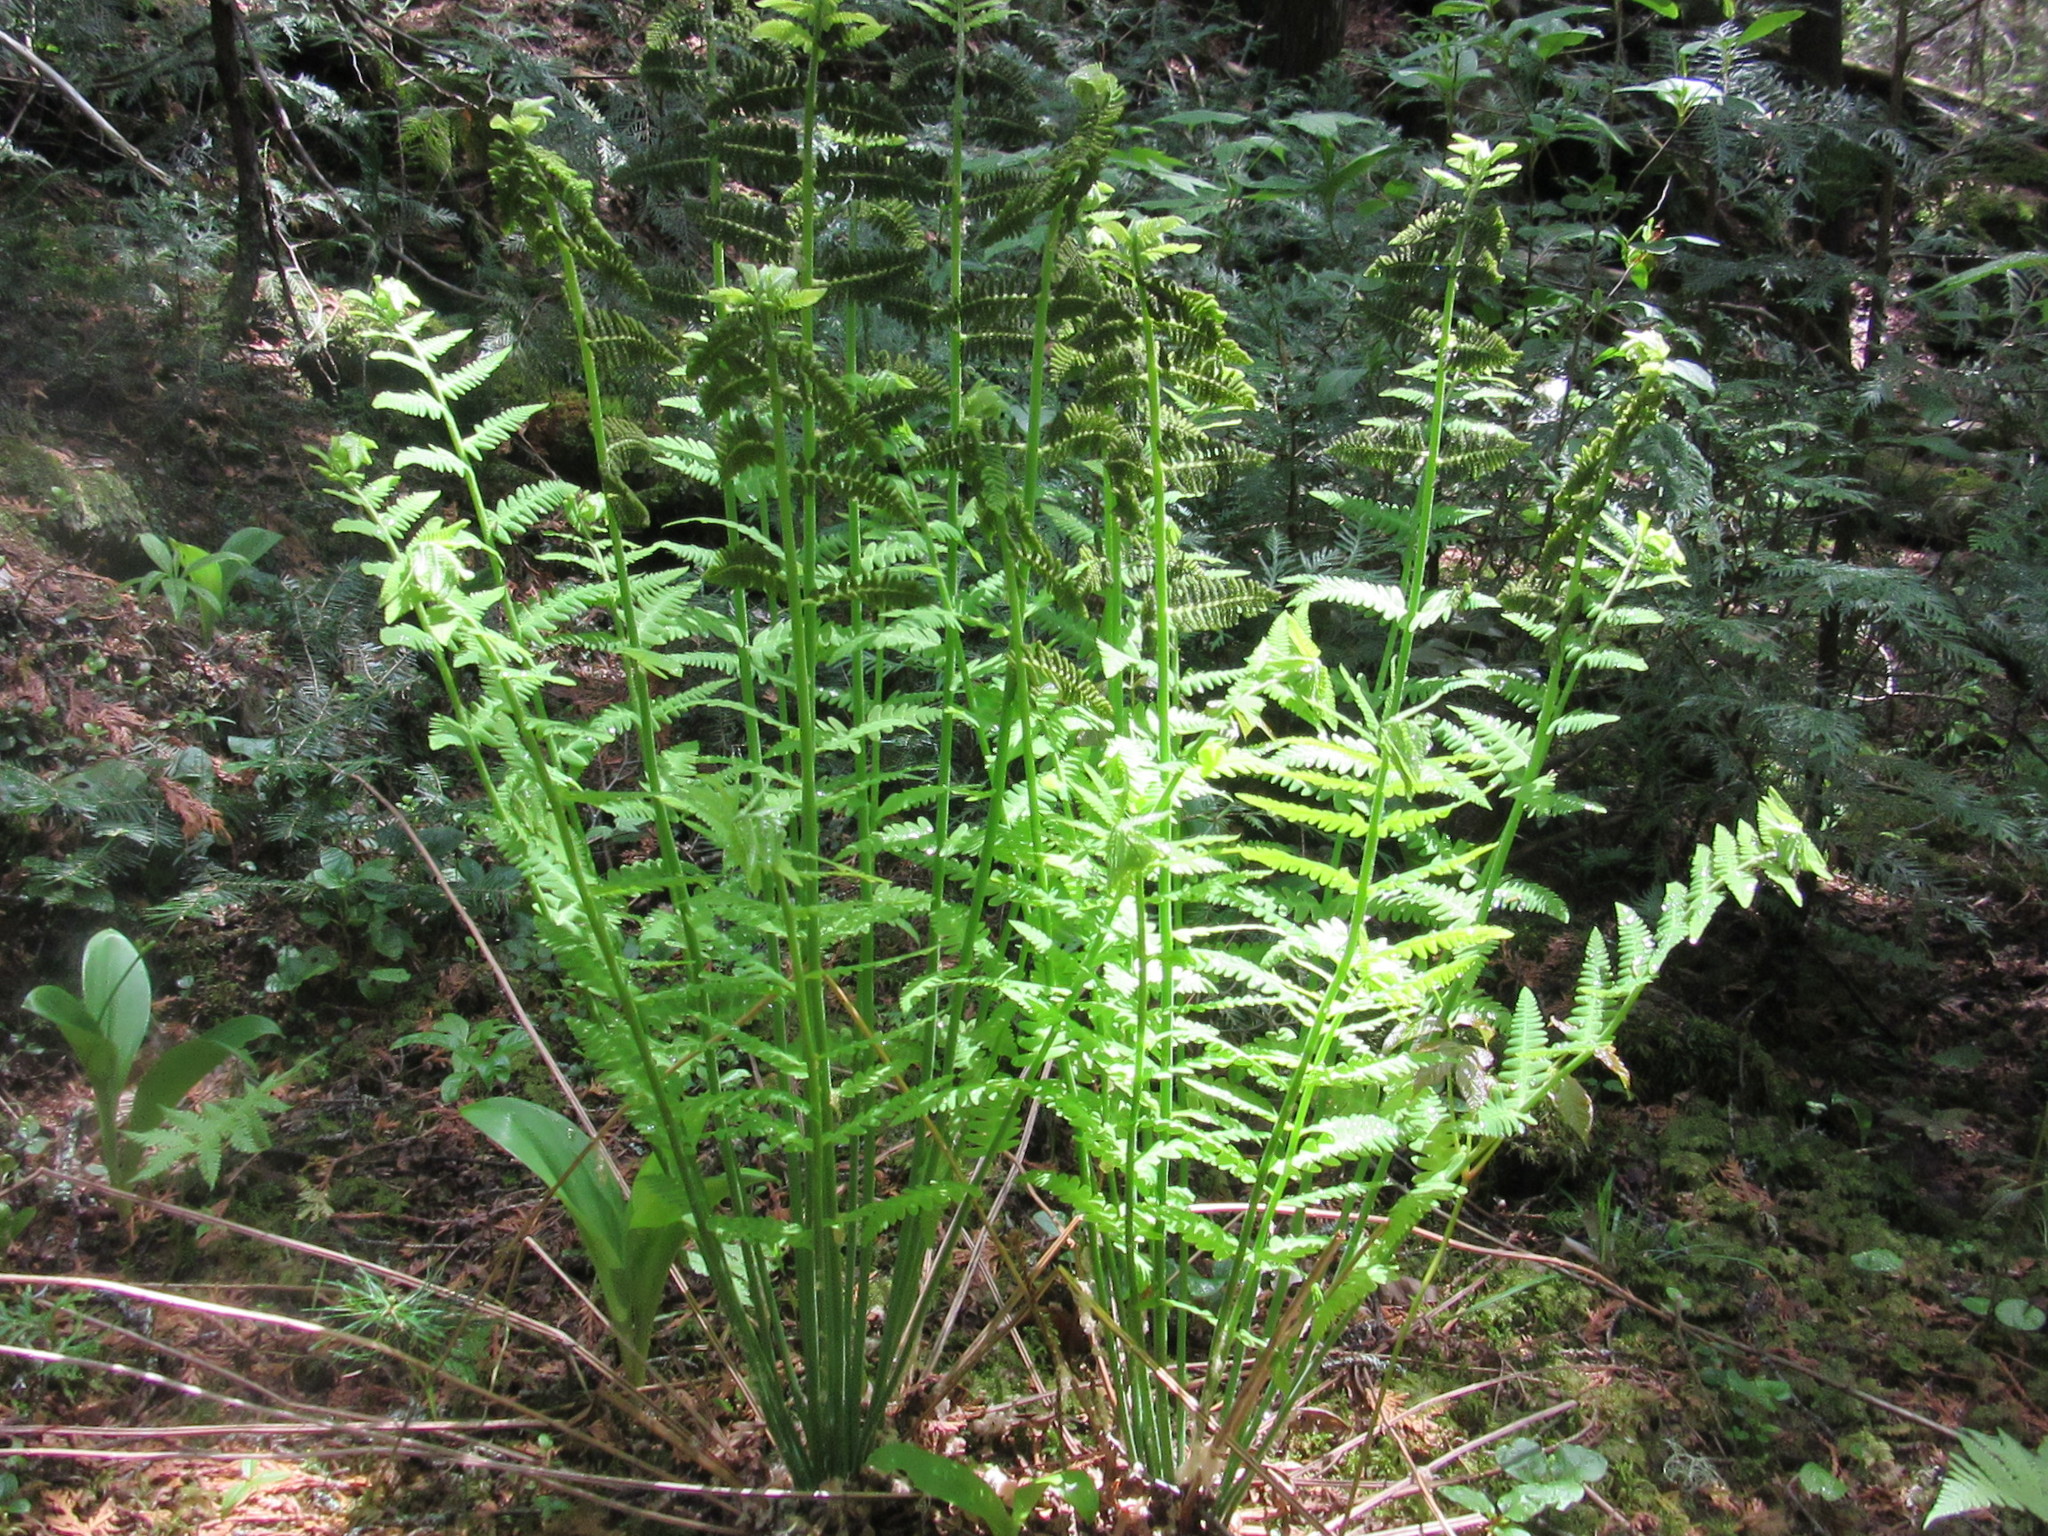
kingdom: Plantae
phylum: Tracheophyta
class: Polypodiopsida
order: Osmundales
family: Osmundaceae
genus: Claytosmunda
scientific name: Claytosmunda claytoniana
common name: Clayton's fern
